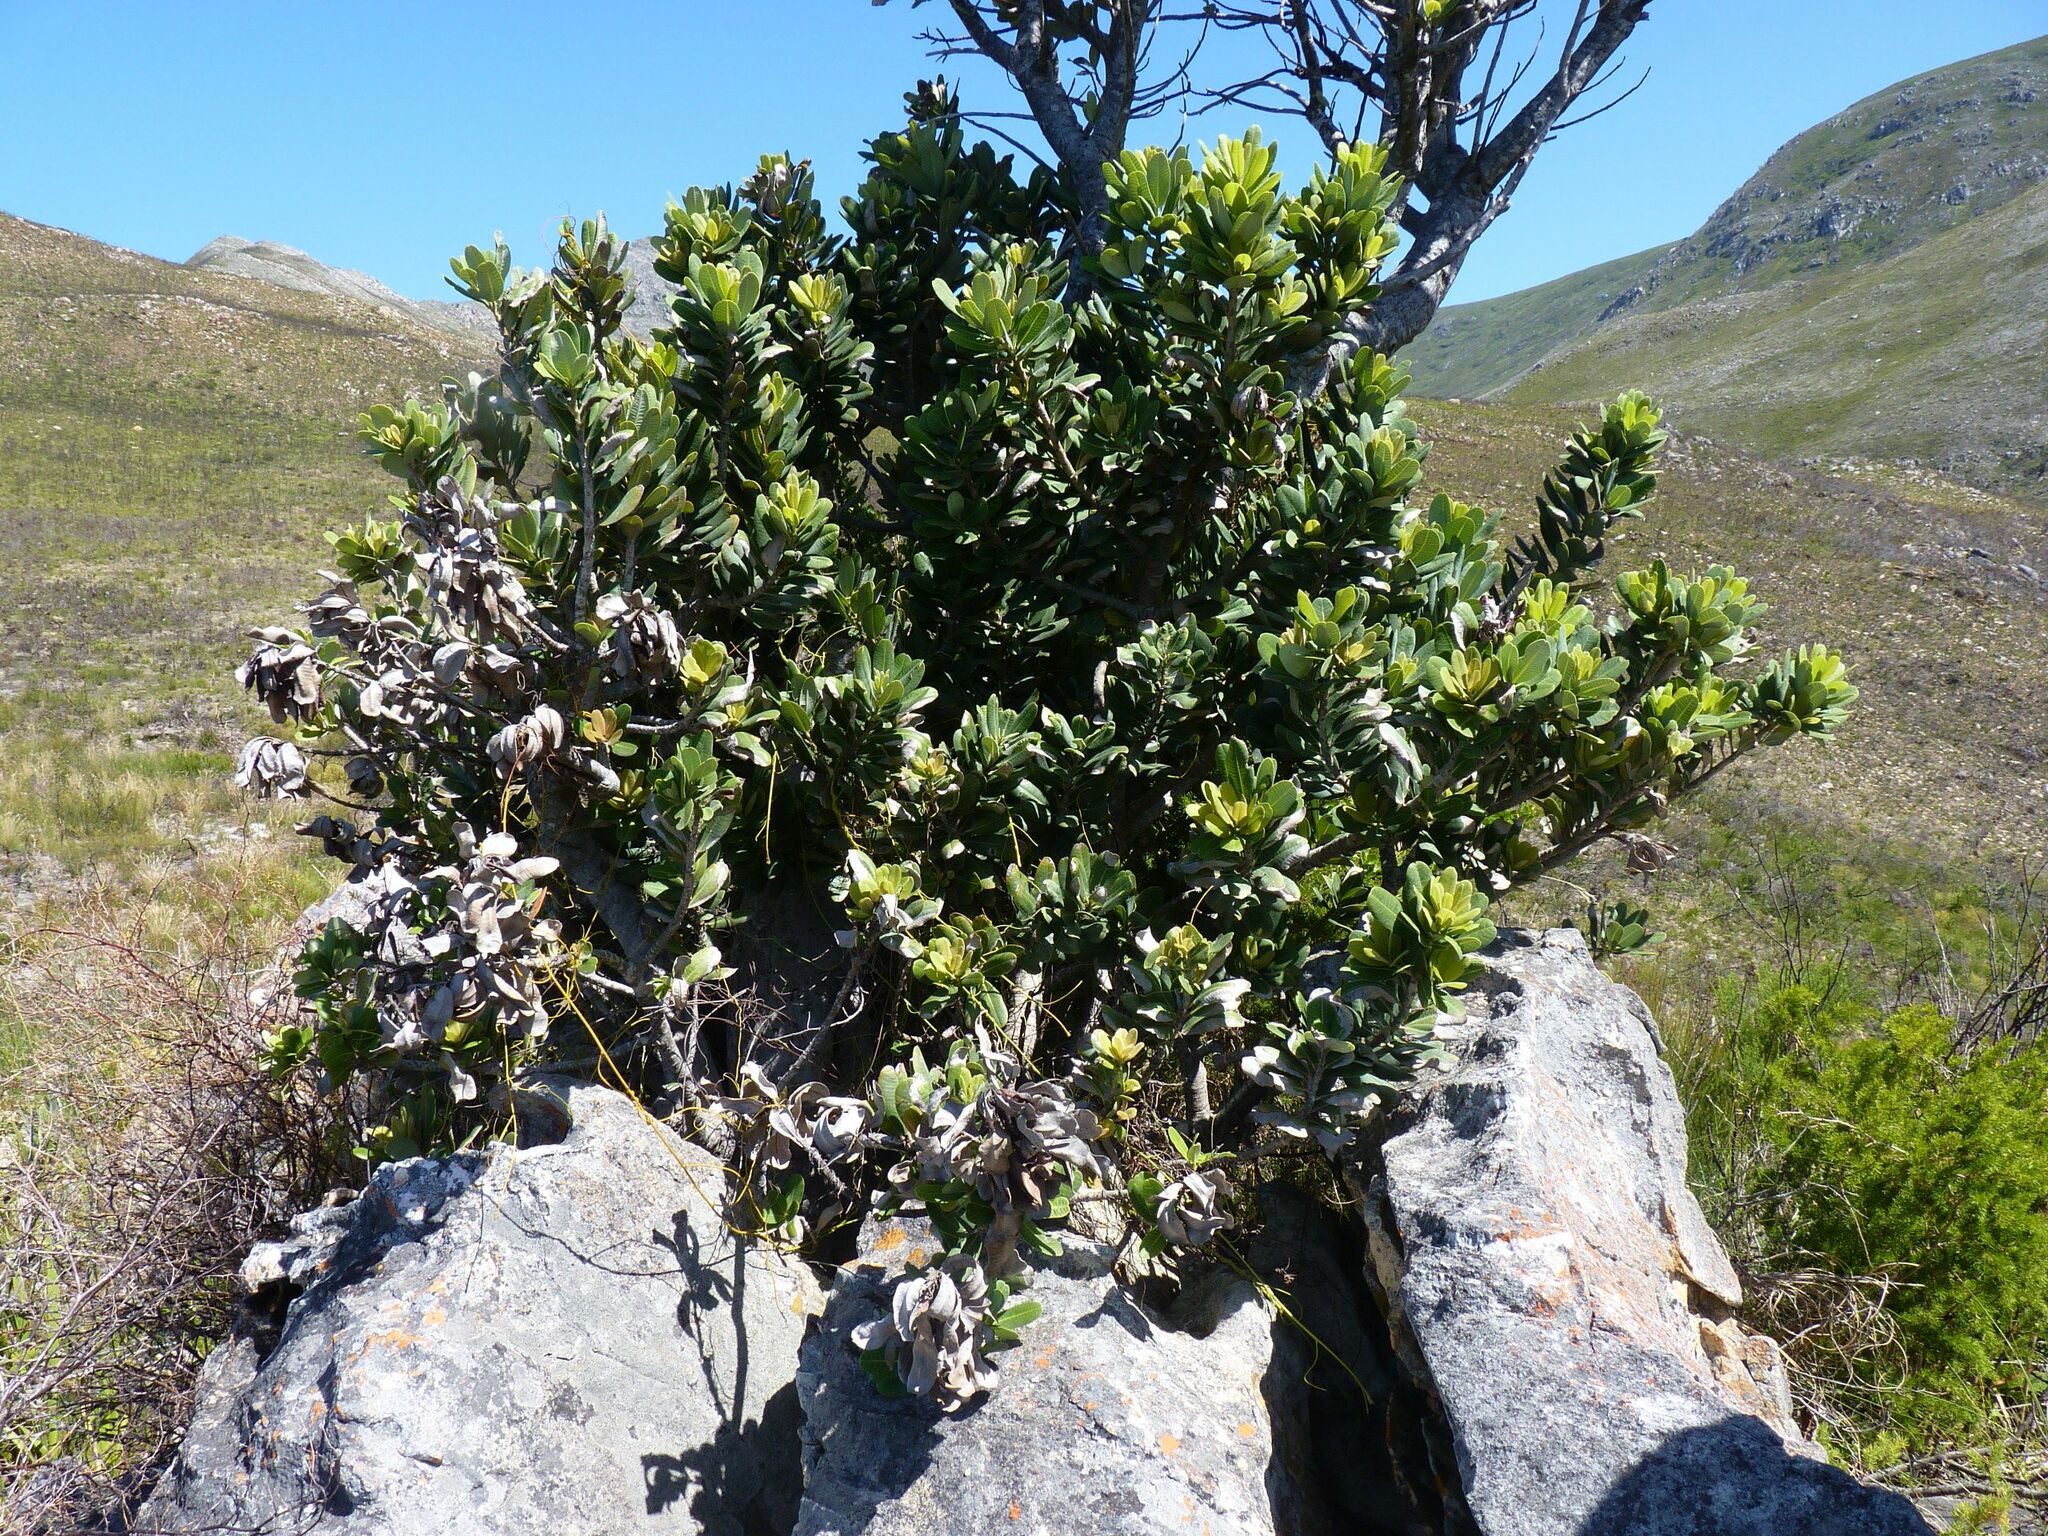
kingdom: Plantae
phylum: Tracheophyta
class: Magnoliopsida
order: Sapindales
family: Anacardiaceae
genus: Heeria
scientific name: Heeria argentea
